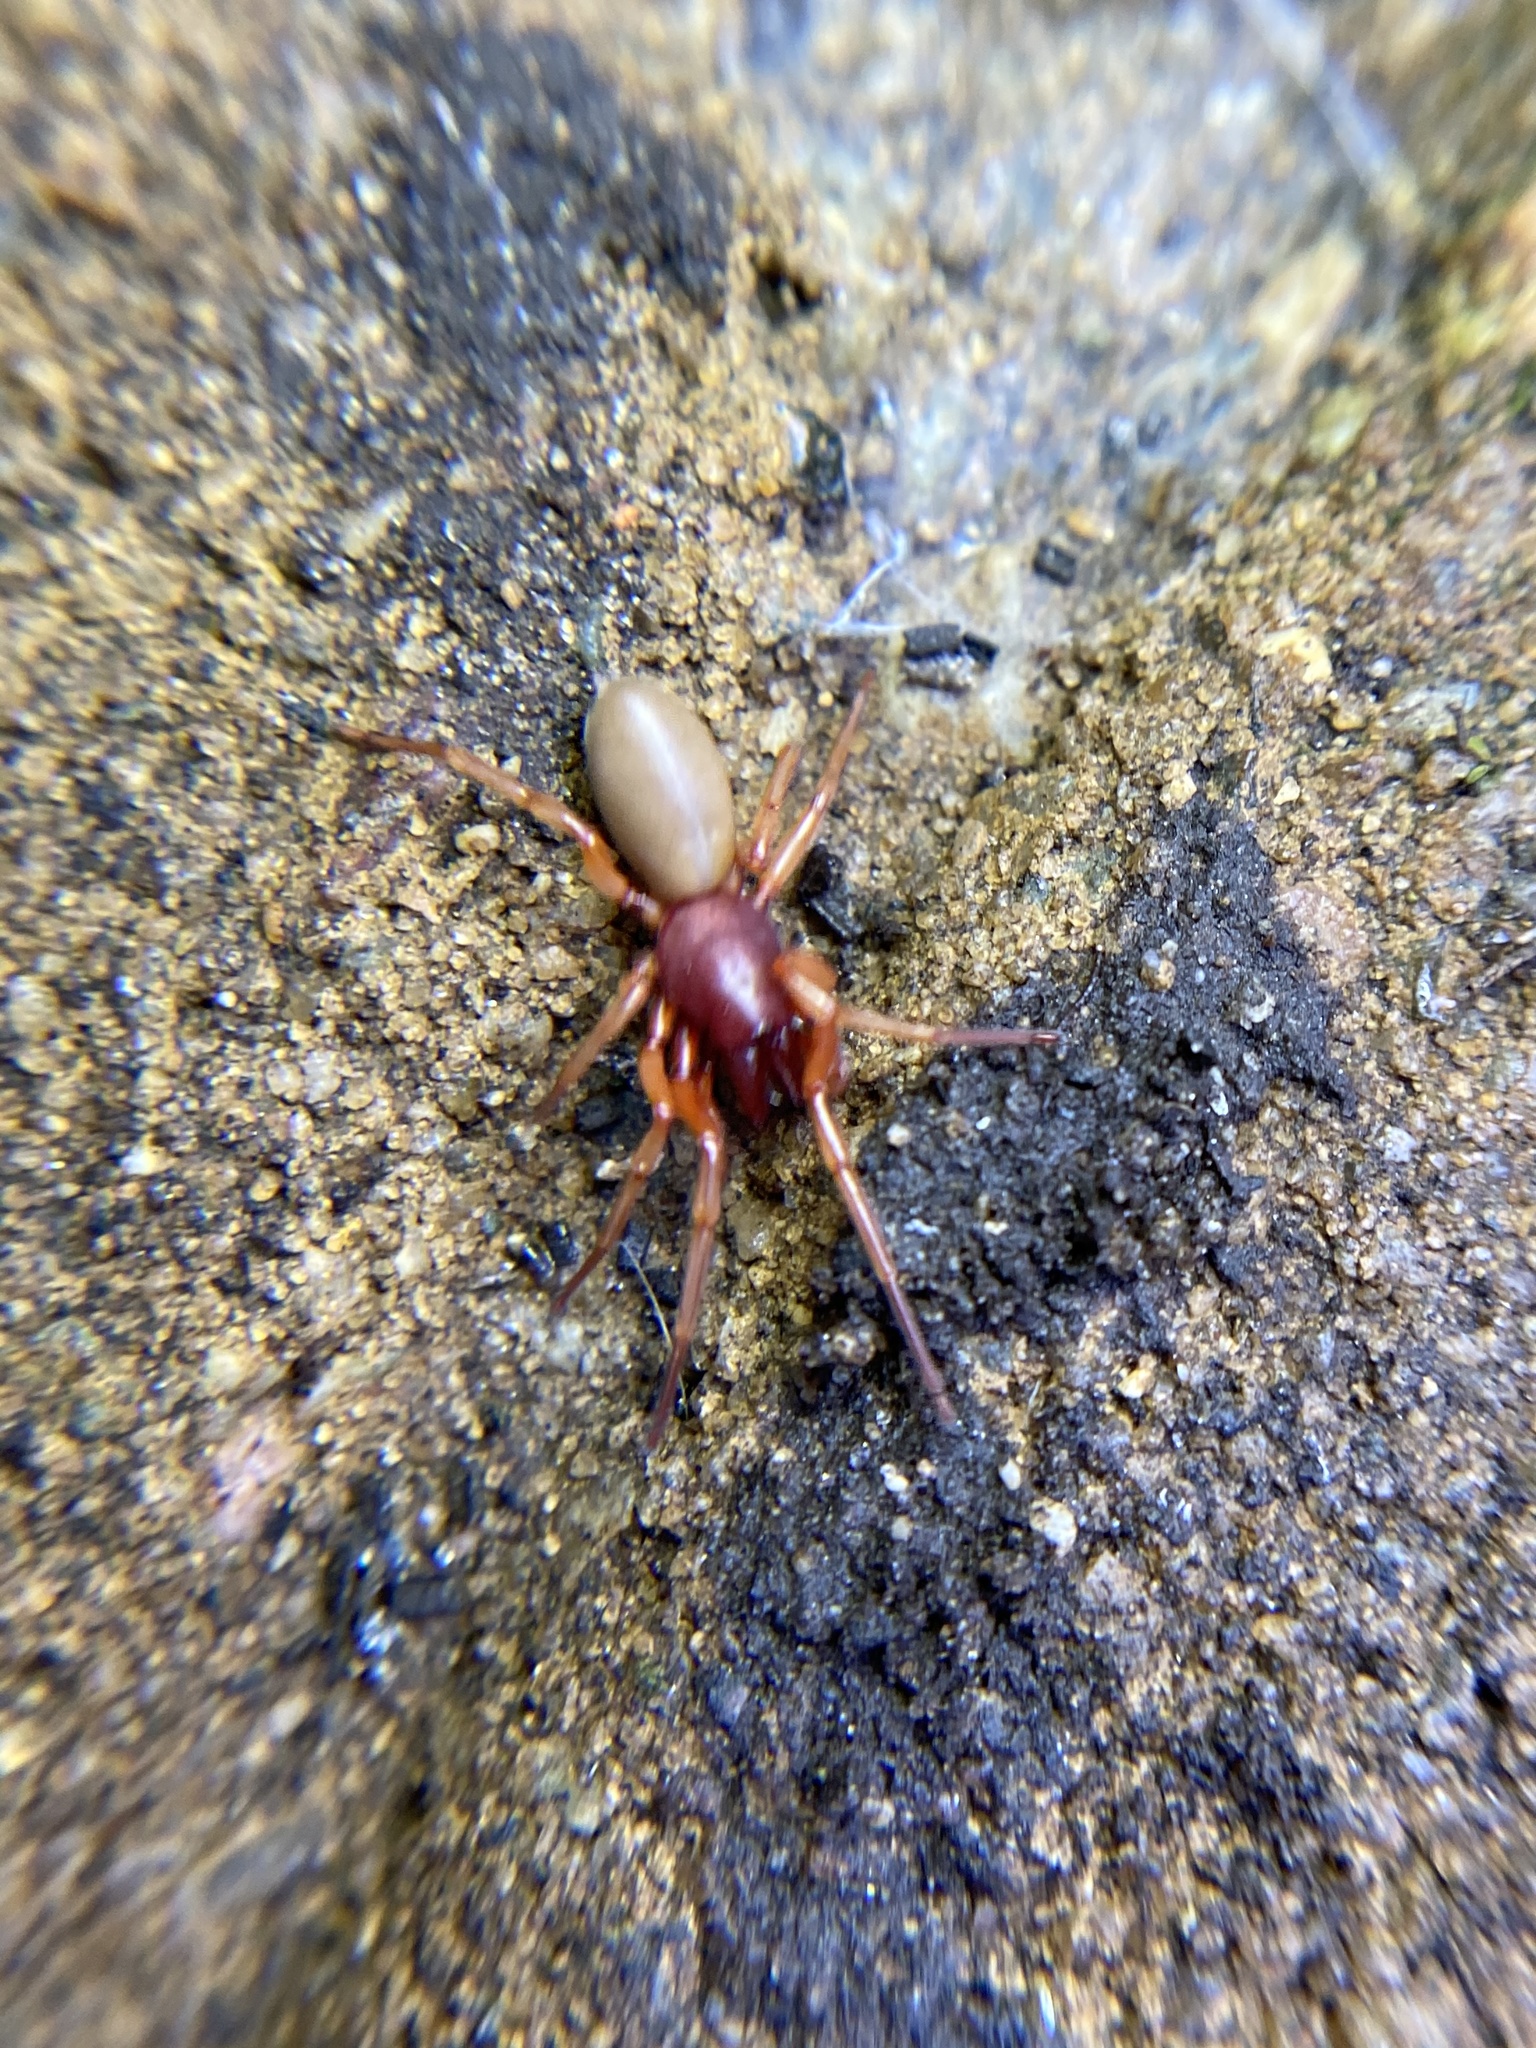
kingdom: Animalia
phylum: Arthropoda
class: Arachnida
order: Araneae
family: Dysderidae
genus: Dysdera
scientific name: Dysdera crocata
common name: Woodlouse spider
